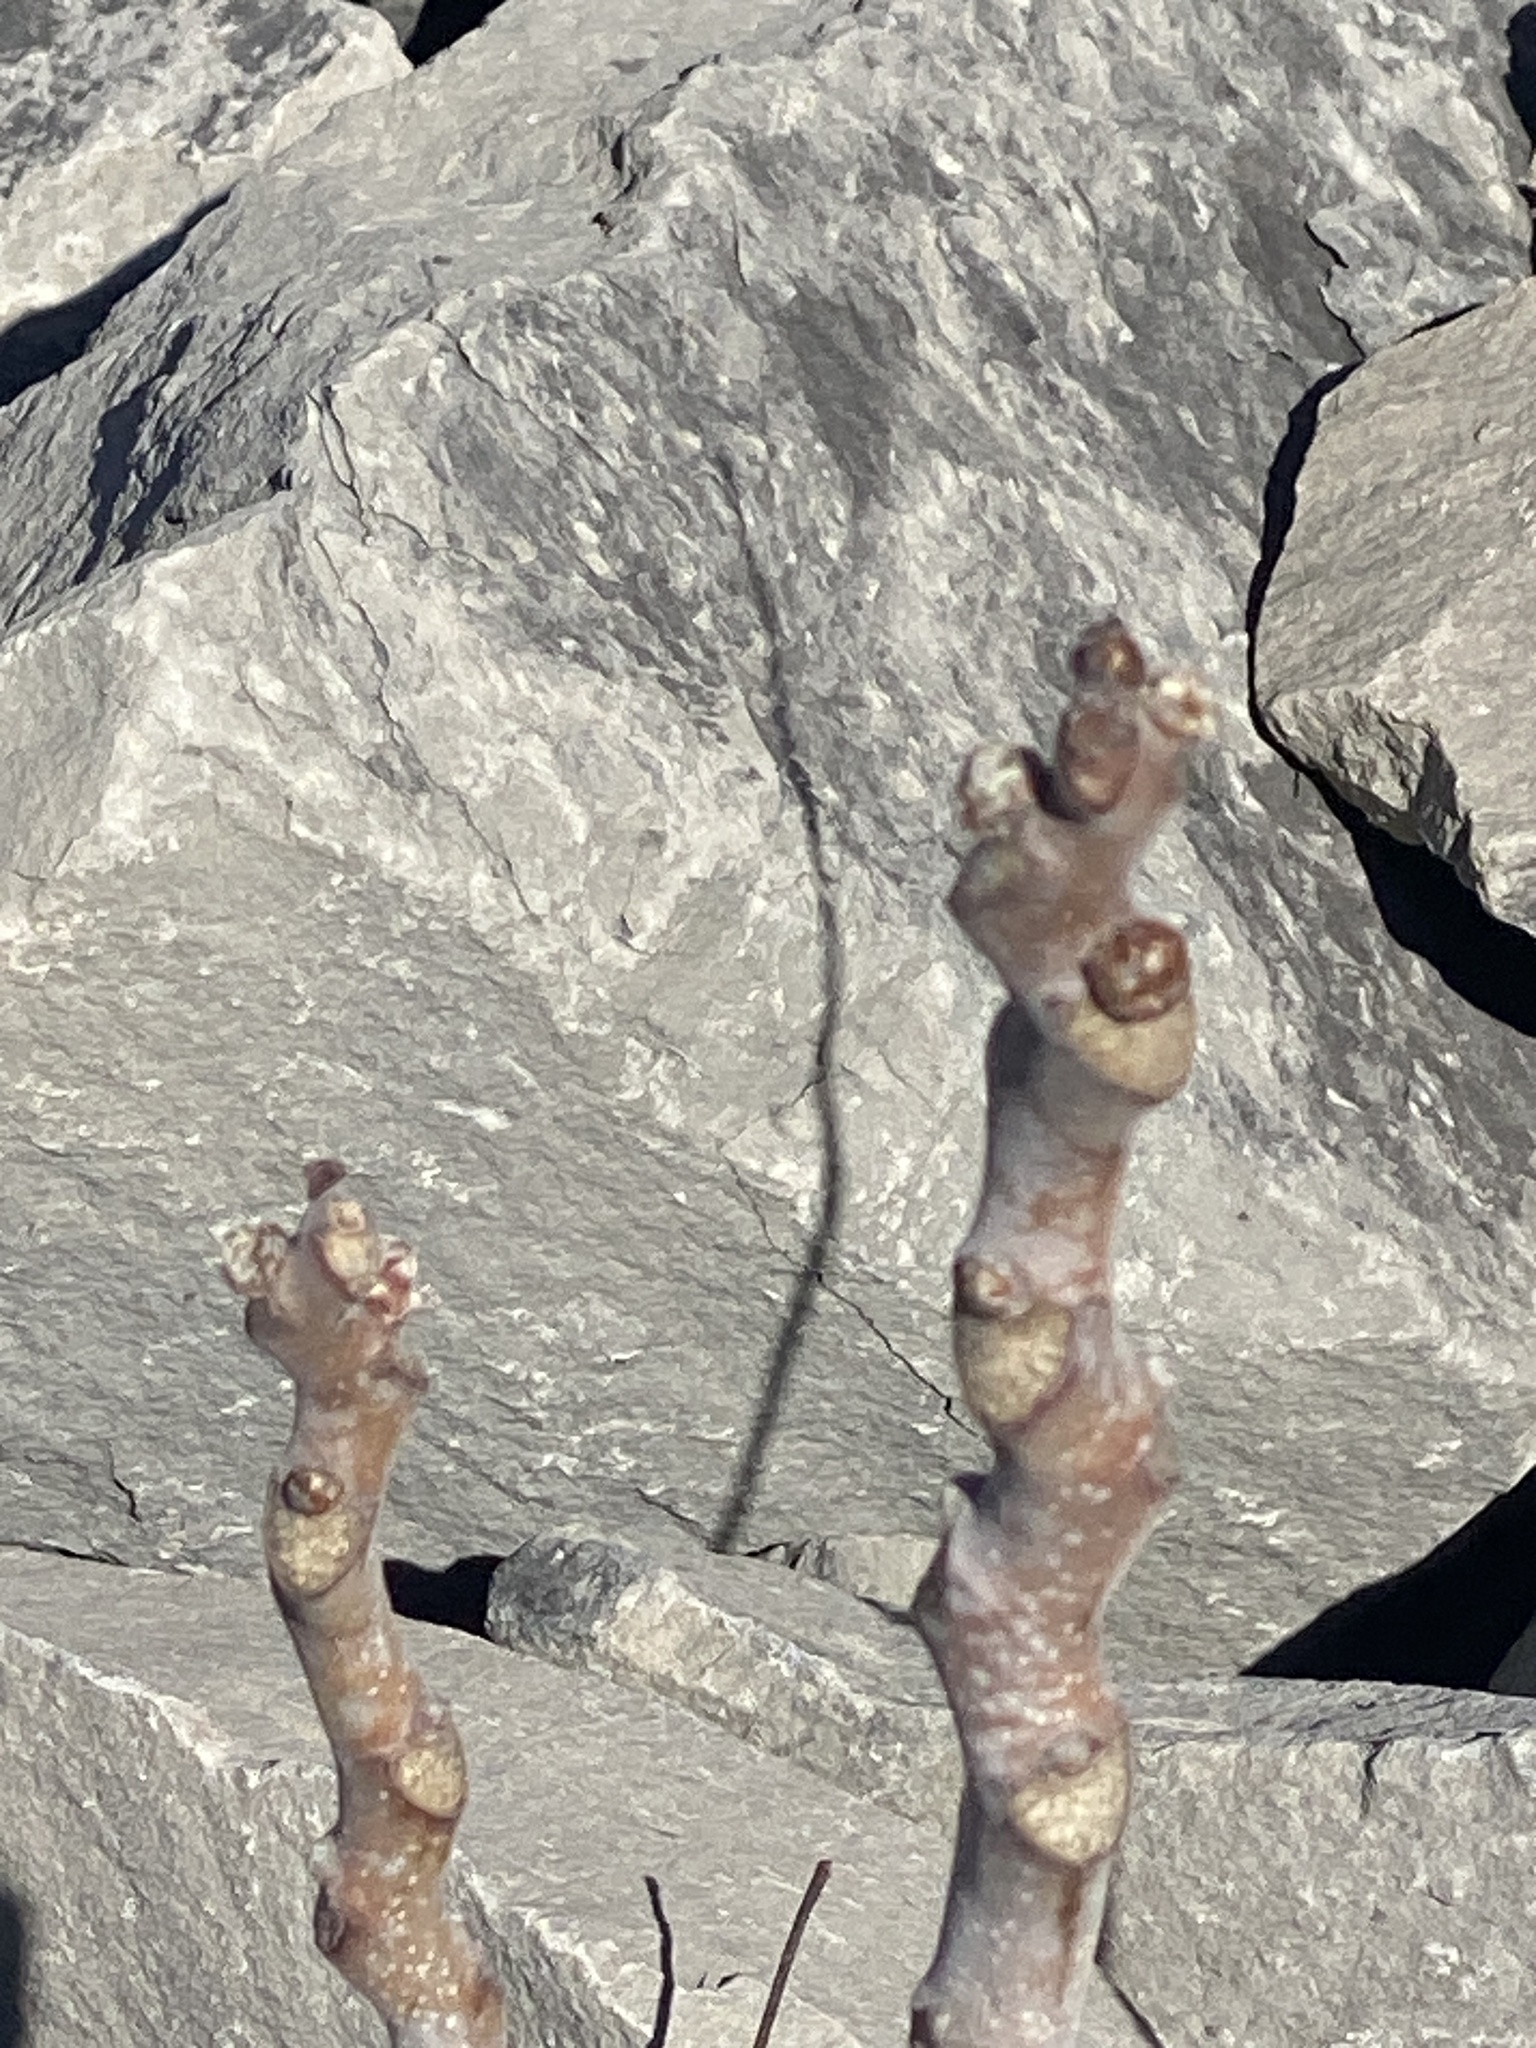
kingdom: Plantae
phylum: Tracheophyta
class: Magnoliopsida
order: Sapindales
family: Simaroubaceae
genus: Ailanthus
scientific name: Ailanthus altissima
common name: Tree-of-heaven
